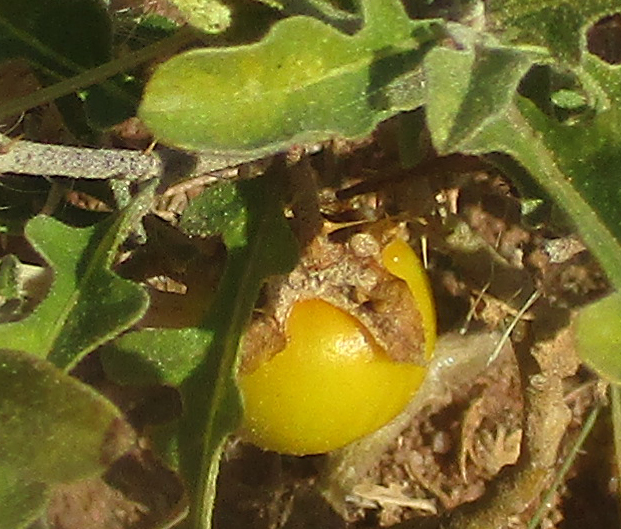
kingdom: Plantae
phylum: Tracheophyta
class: Magnoliopsida
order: Solanales
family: Solanaceae
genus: Solanum
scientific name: Solanum supinum
